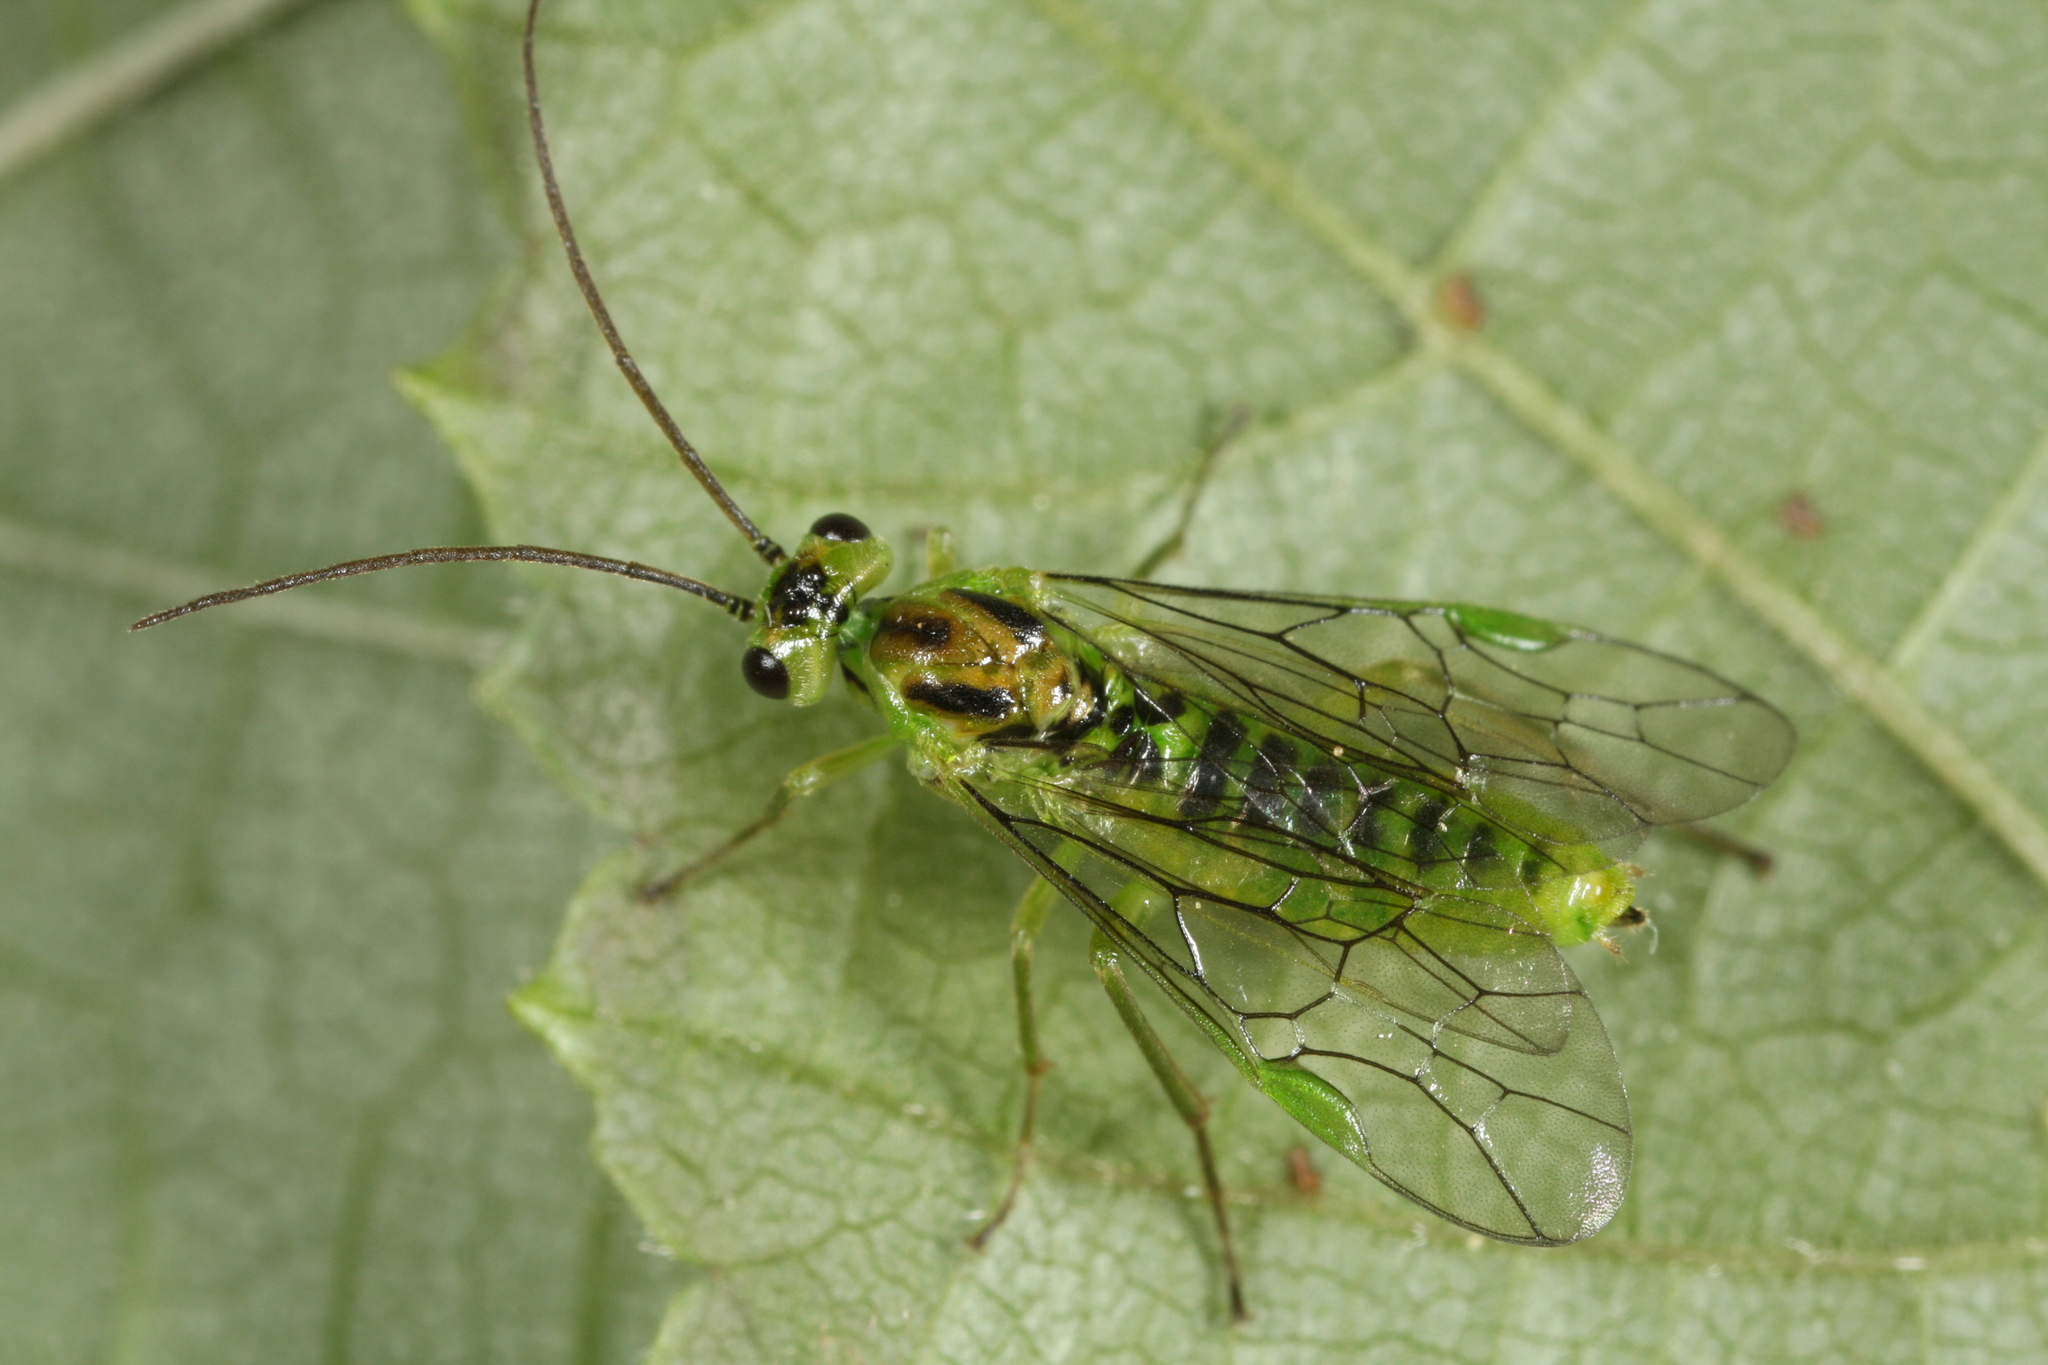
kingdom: Animalia
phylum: Arthropoda
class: Insecta
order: Hymenoptera
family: Tenthredinidae
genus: Euura
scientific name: Euura glutinosae
